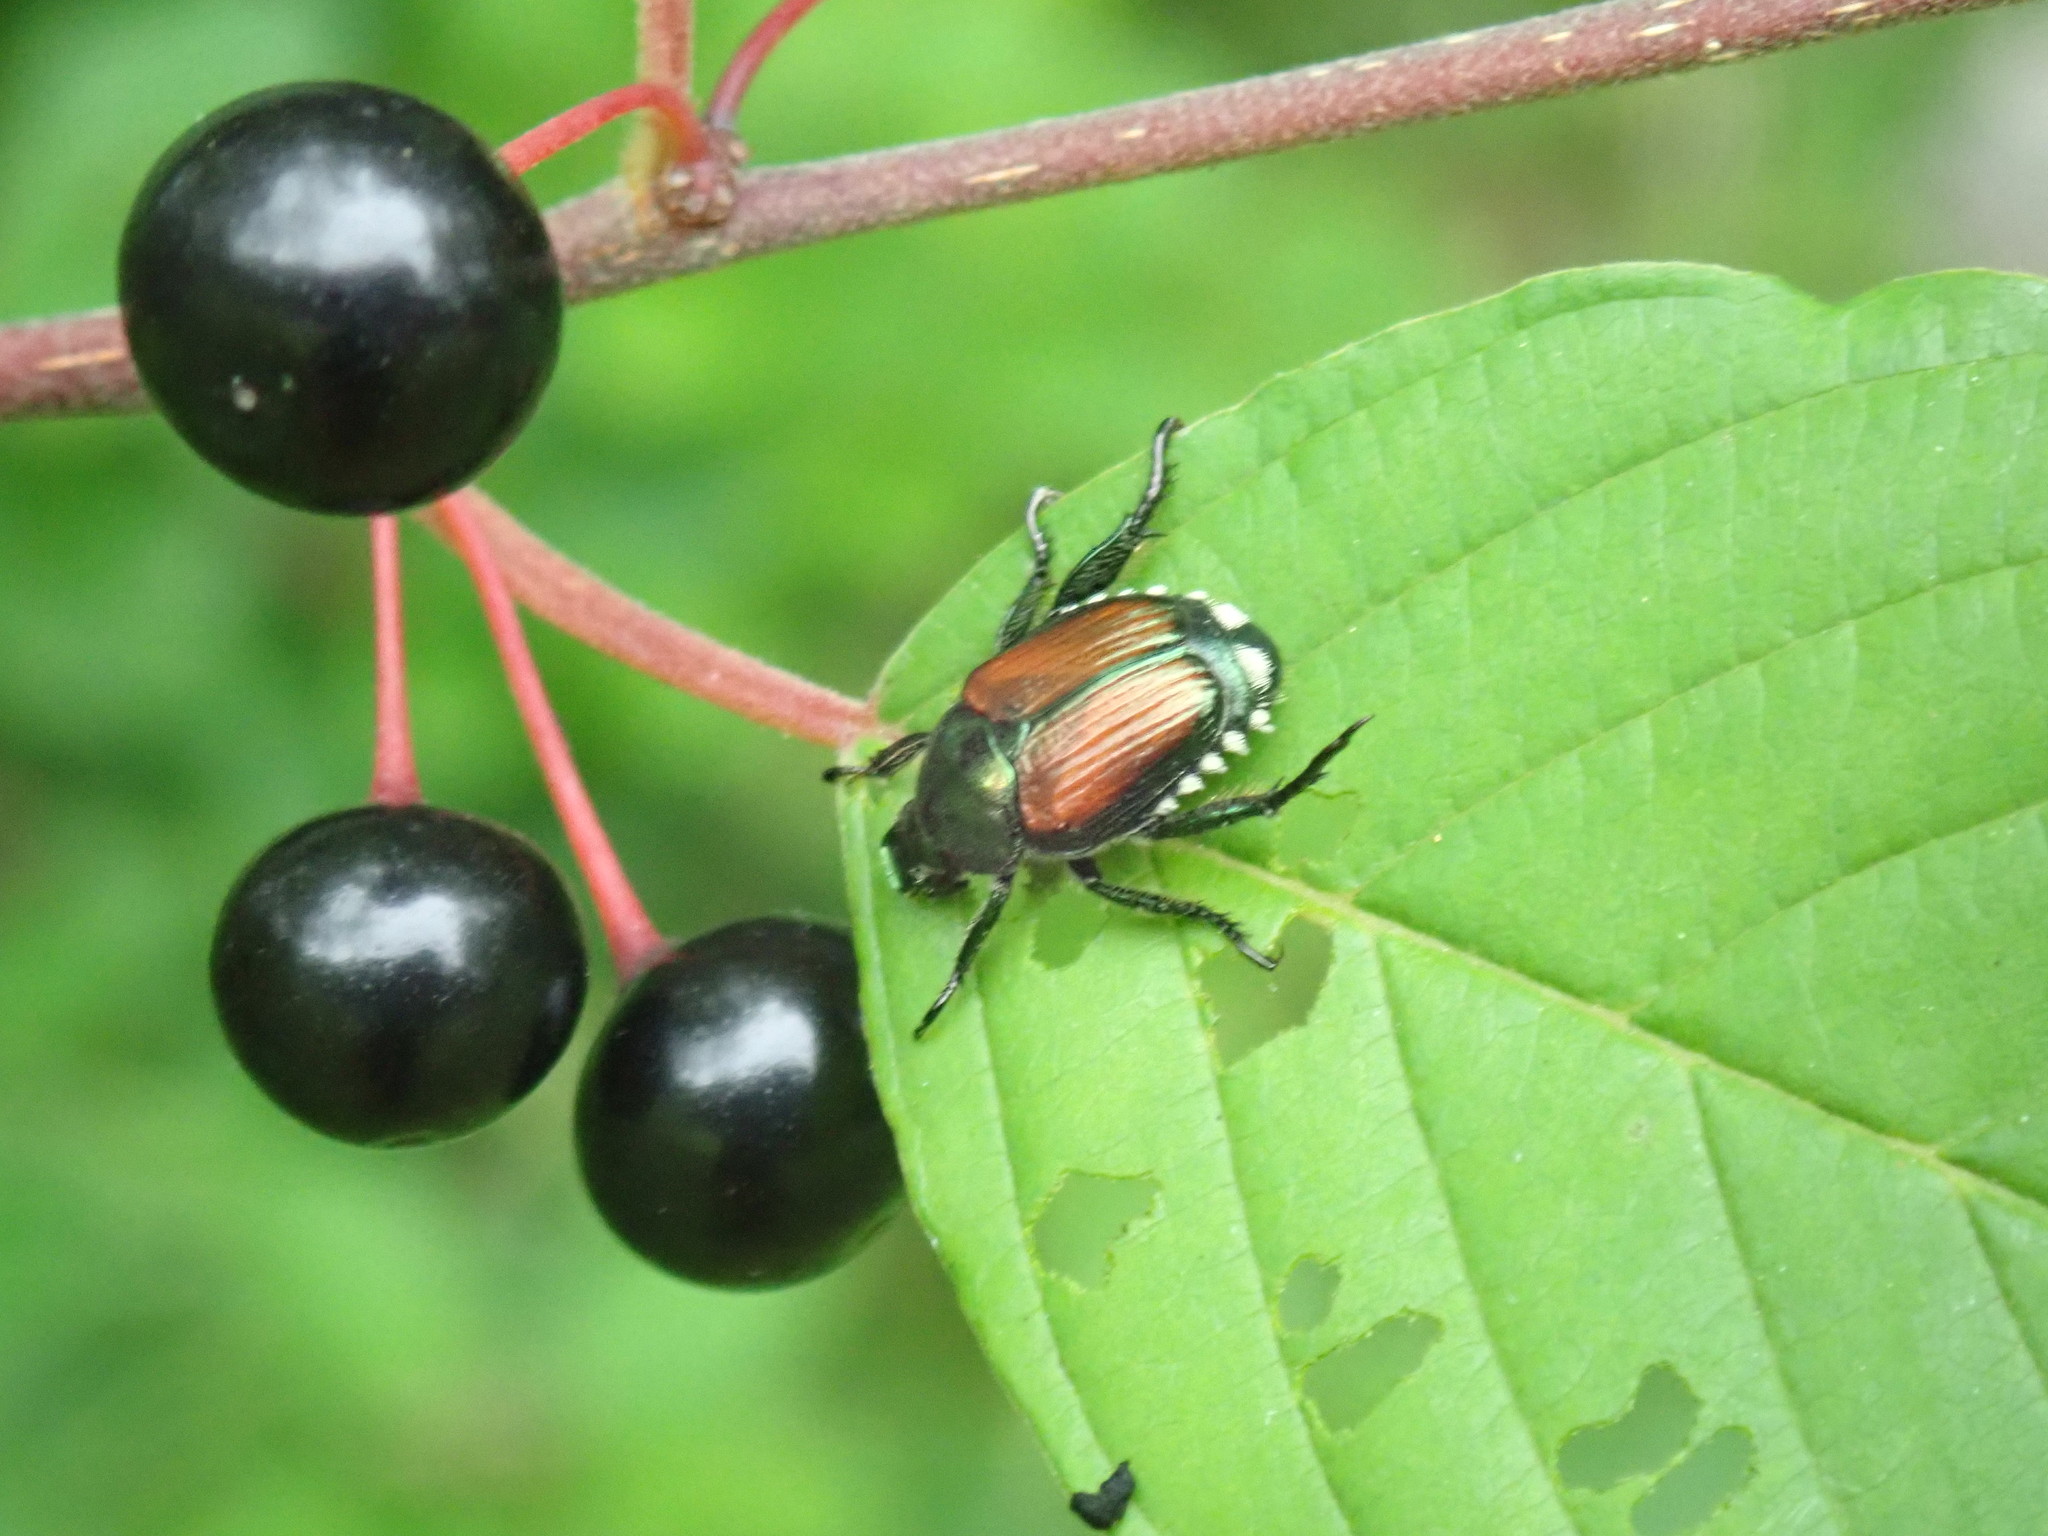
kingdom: Animalia
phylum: Arthropoda
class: Insecta
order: Coleoptera
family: Scarabaeidae
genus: Popillia
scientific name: Popillia japonica
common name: Japanese beetle
